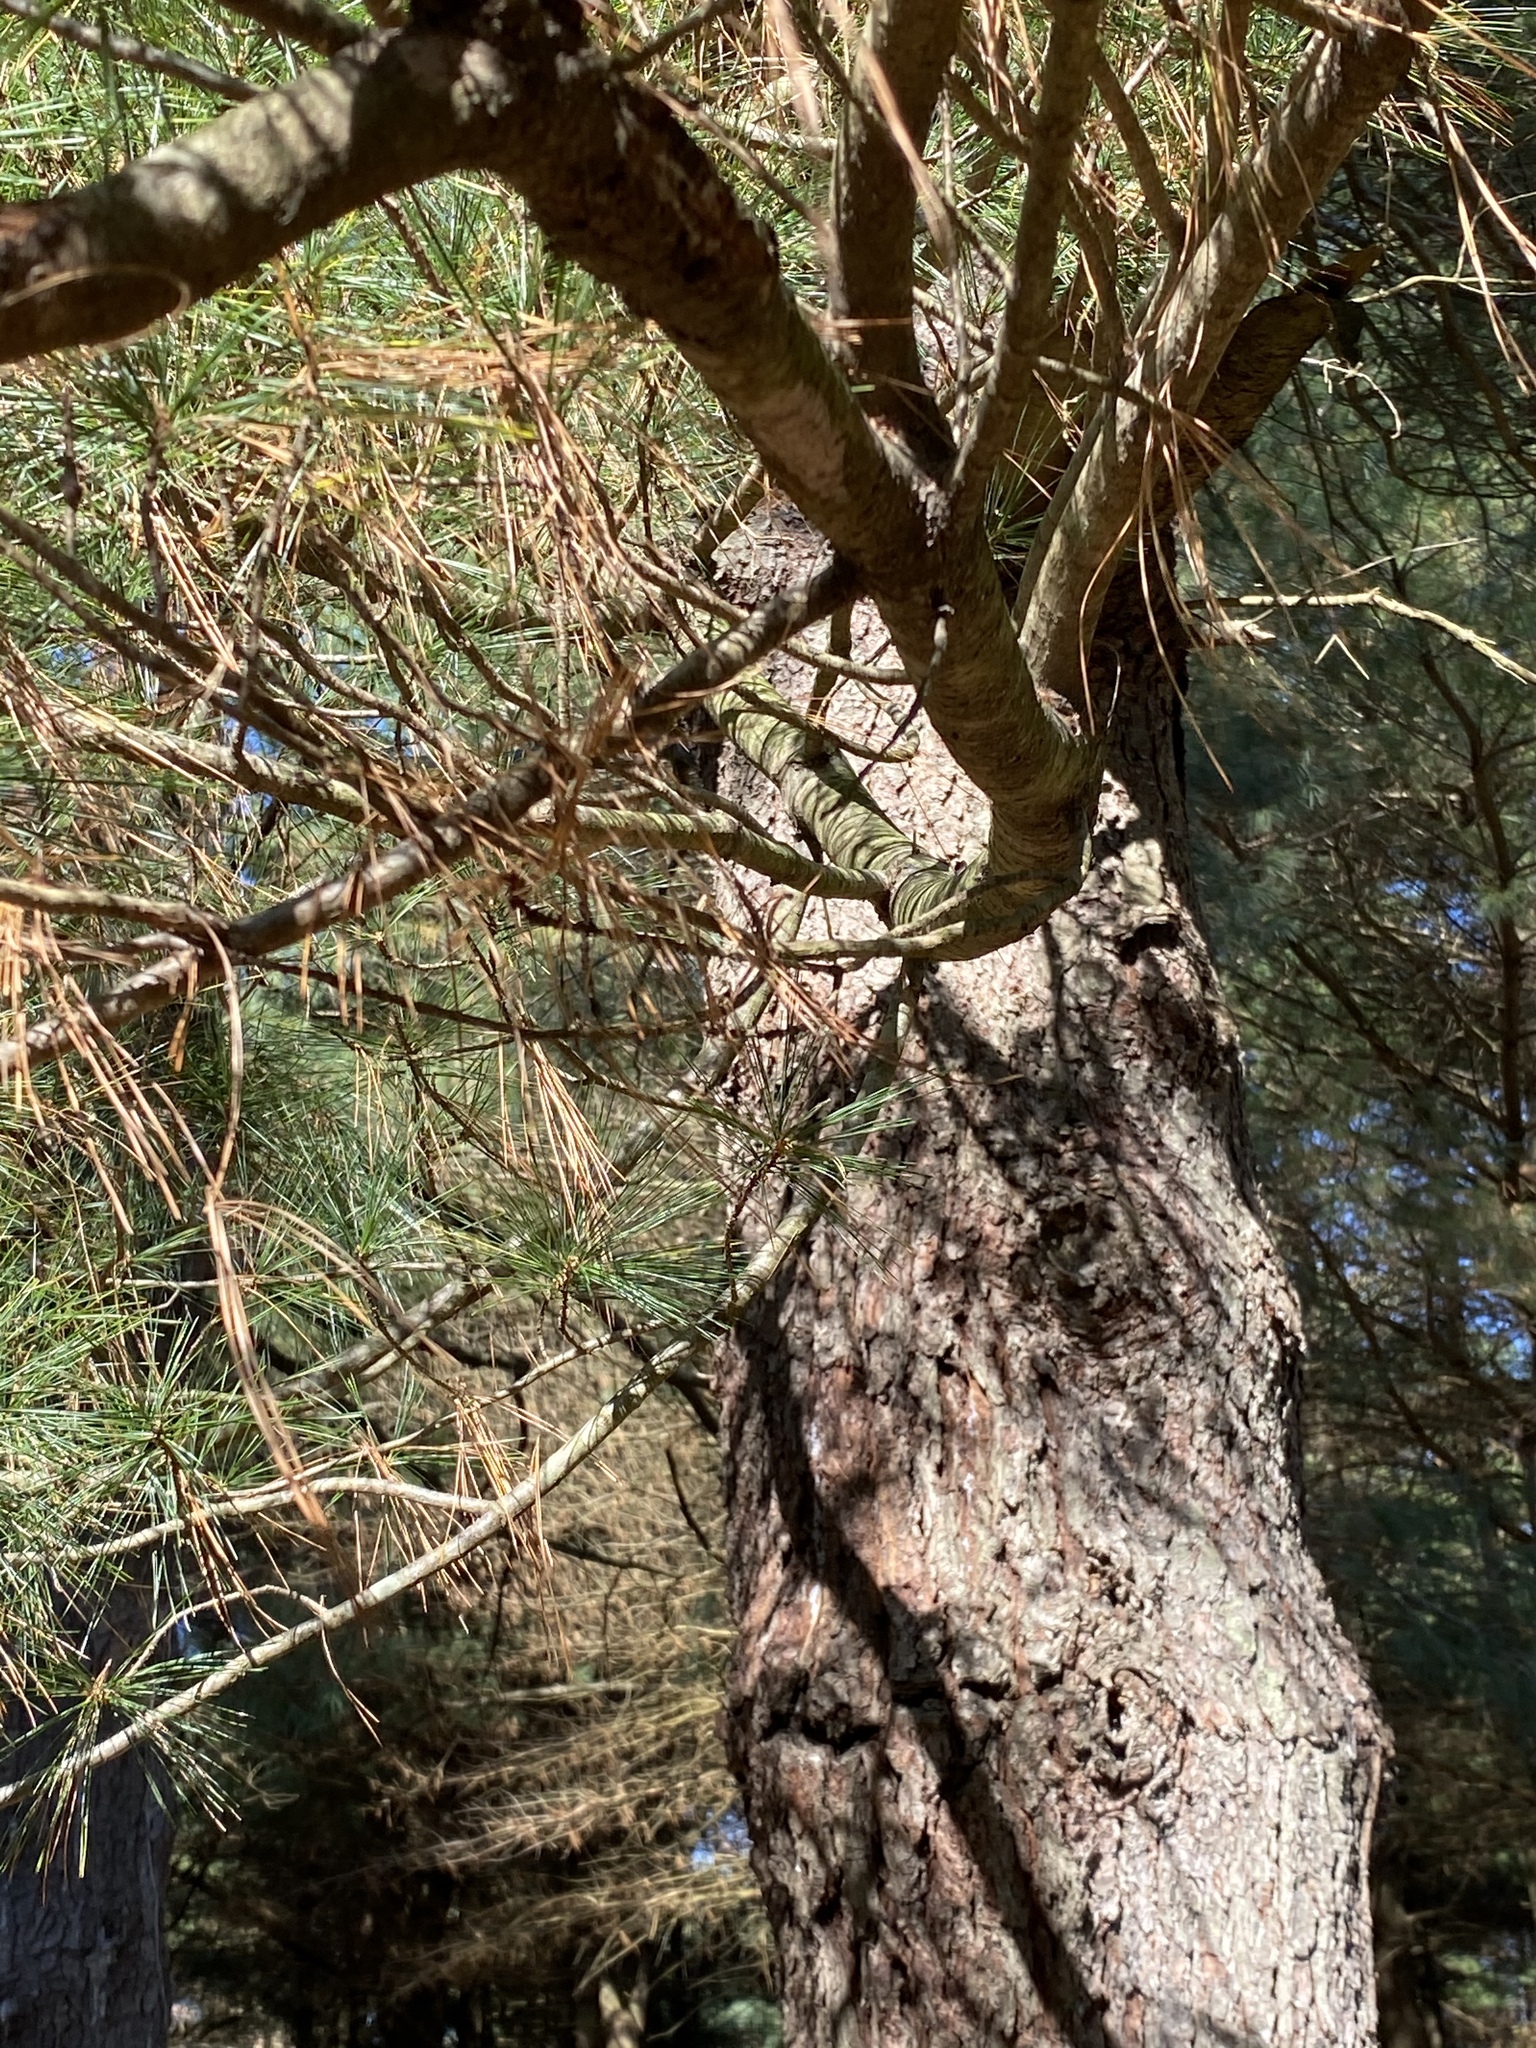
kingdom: Plantae
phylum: Tracheophyta
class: Pinopsida
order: Pinales
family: Pinaceae
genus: Pinus
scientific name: Pinus strobus
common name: Weymouth pine
